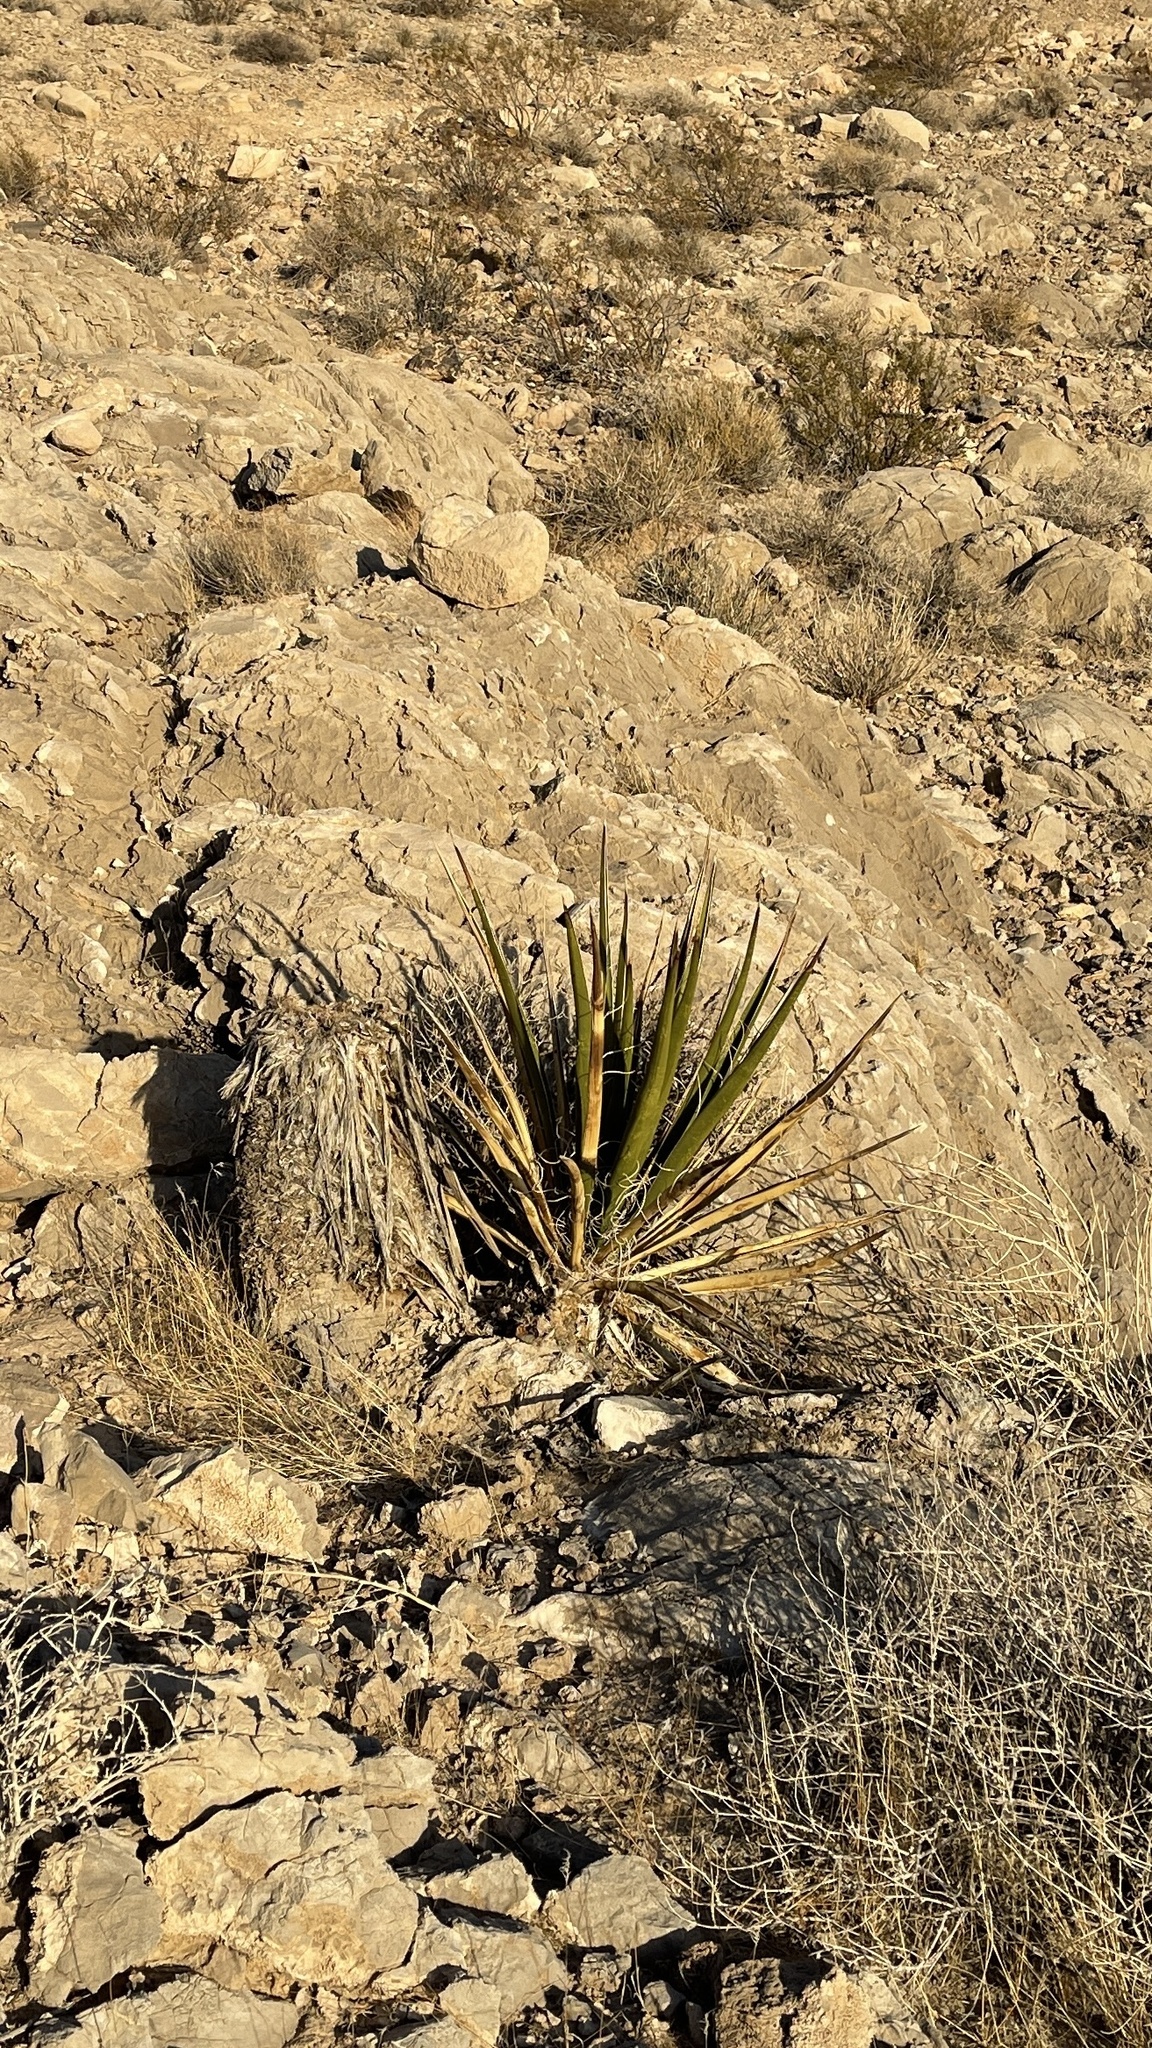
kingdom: Plantae
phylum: Tracheophyta
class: Liliopsida
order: Asparagales
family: Asparagaceae
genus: Yucca
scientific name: Yucca schidigera
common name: Mojave yucca
